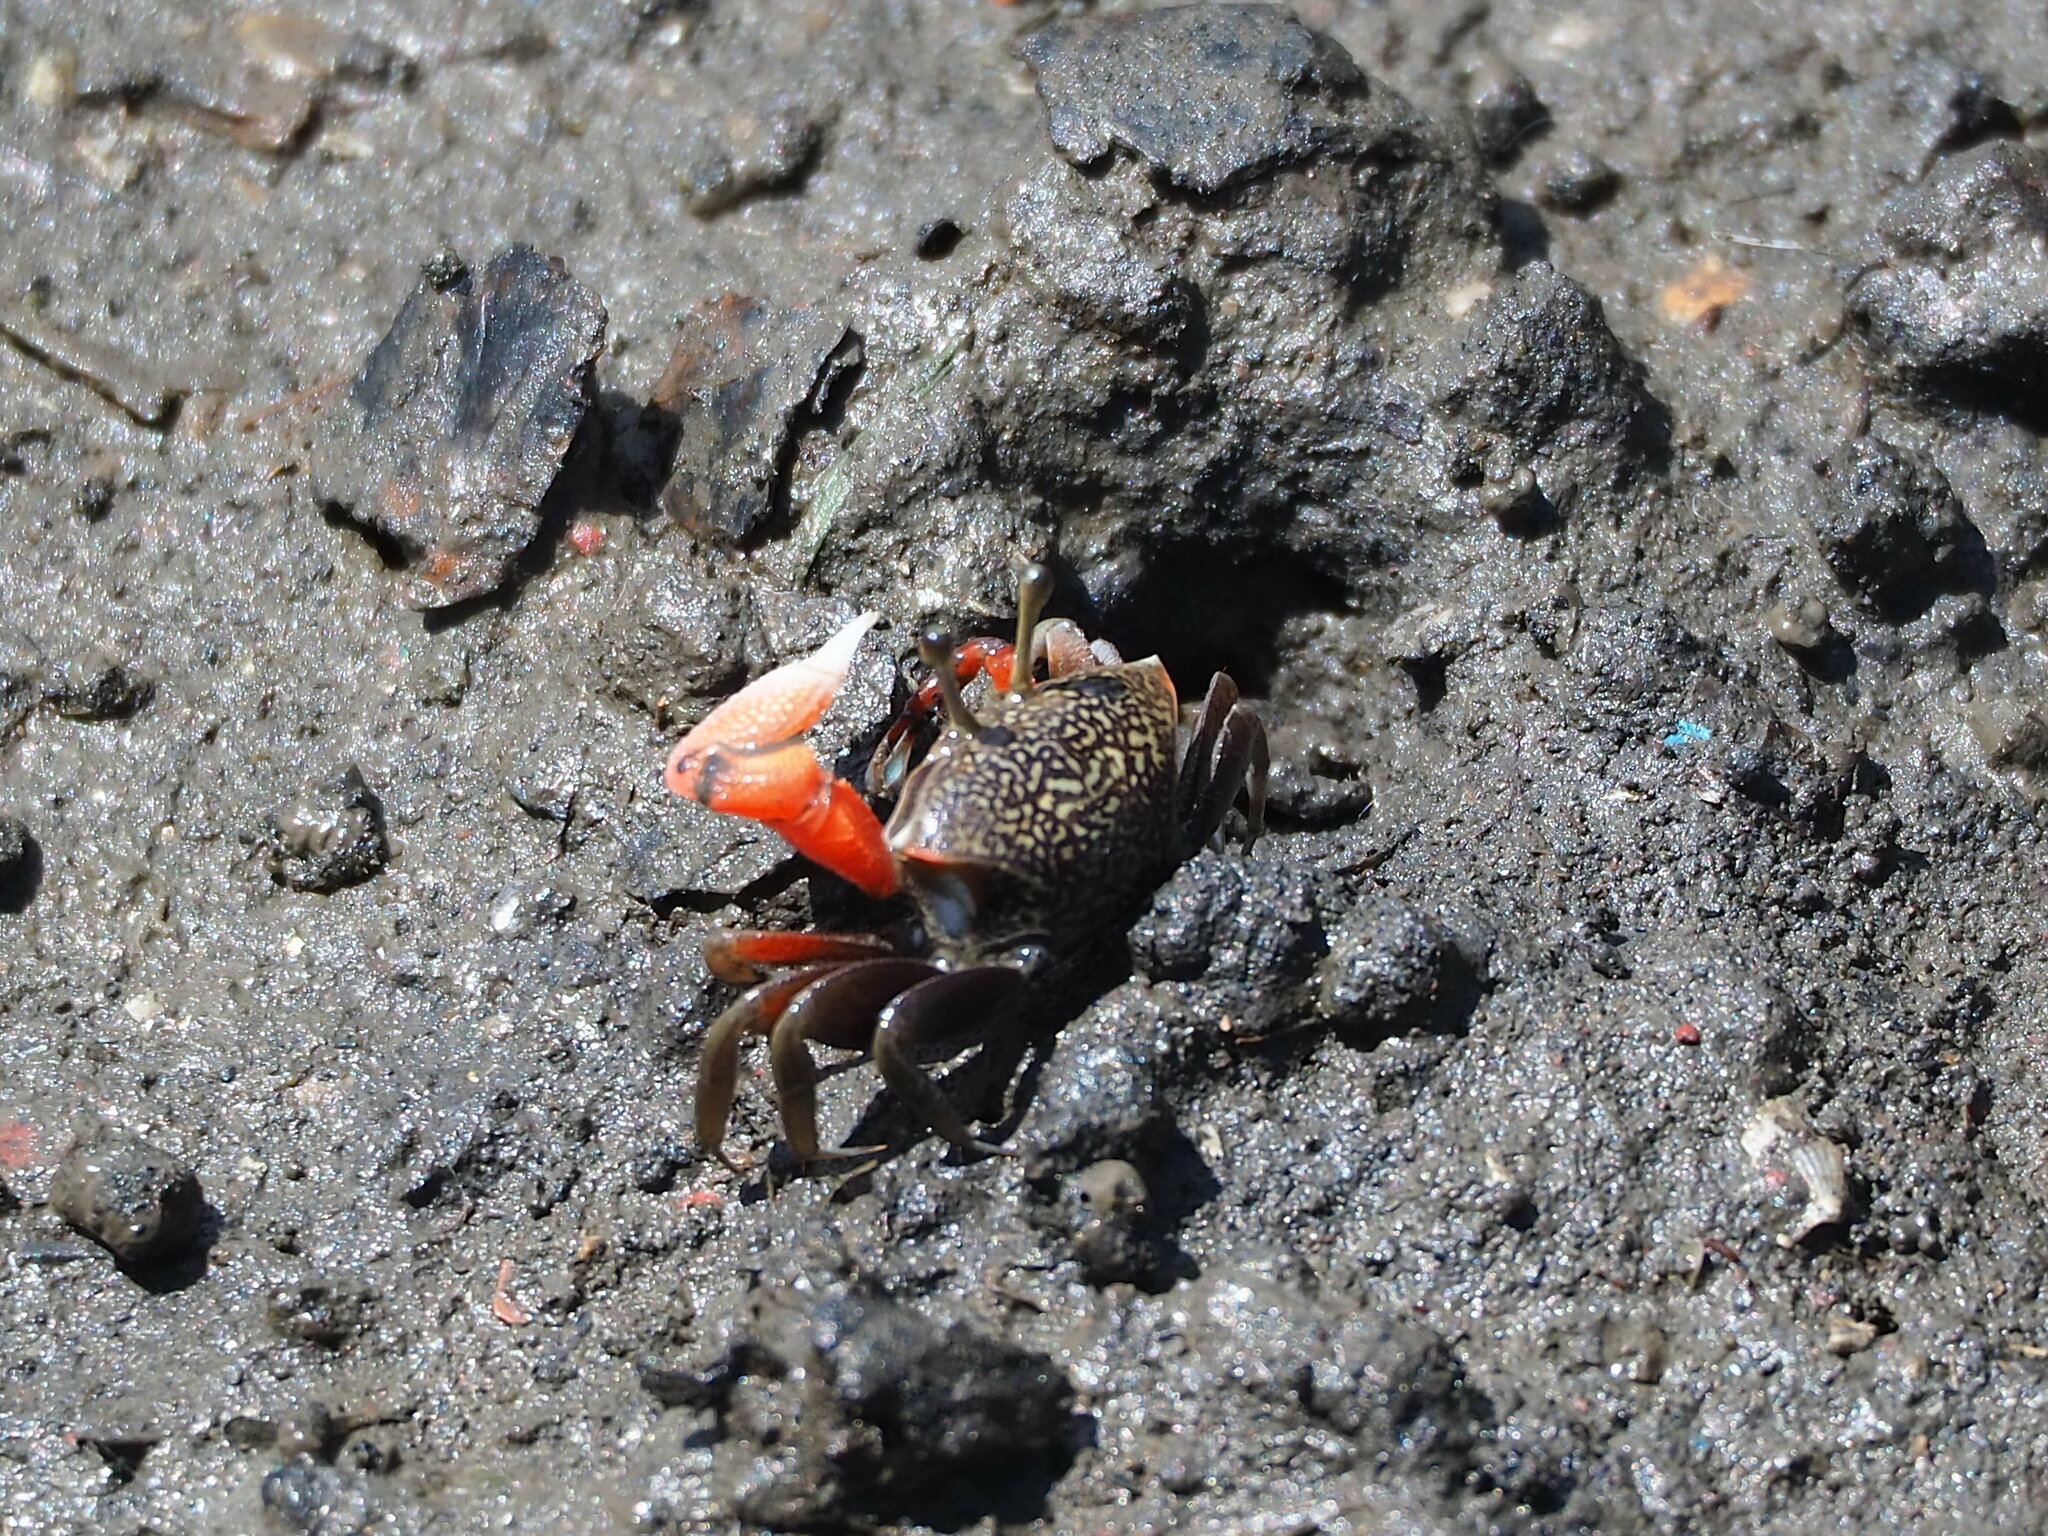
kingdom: Animalia
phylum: Arthropoda
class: Malacostraca
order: Decapoda
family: Ocypodidae
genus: Tubuca
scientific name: Tubuca arcuata
